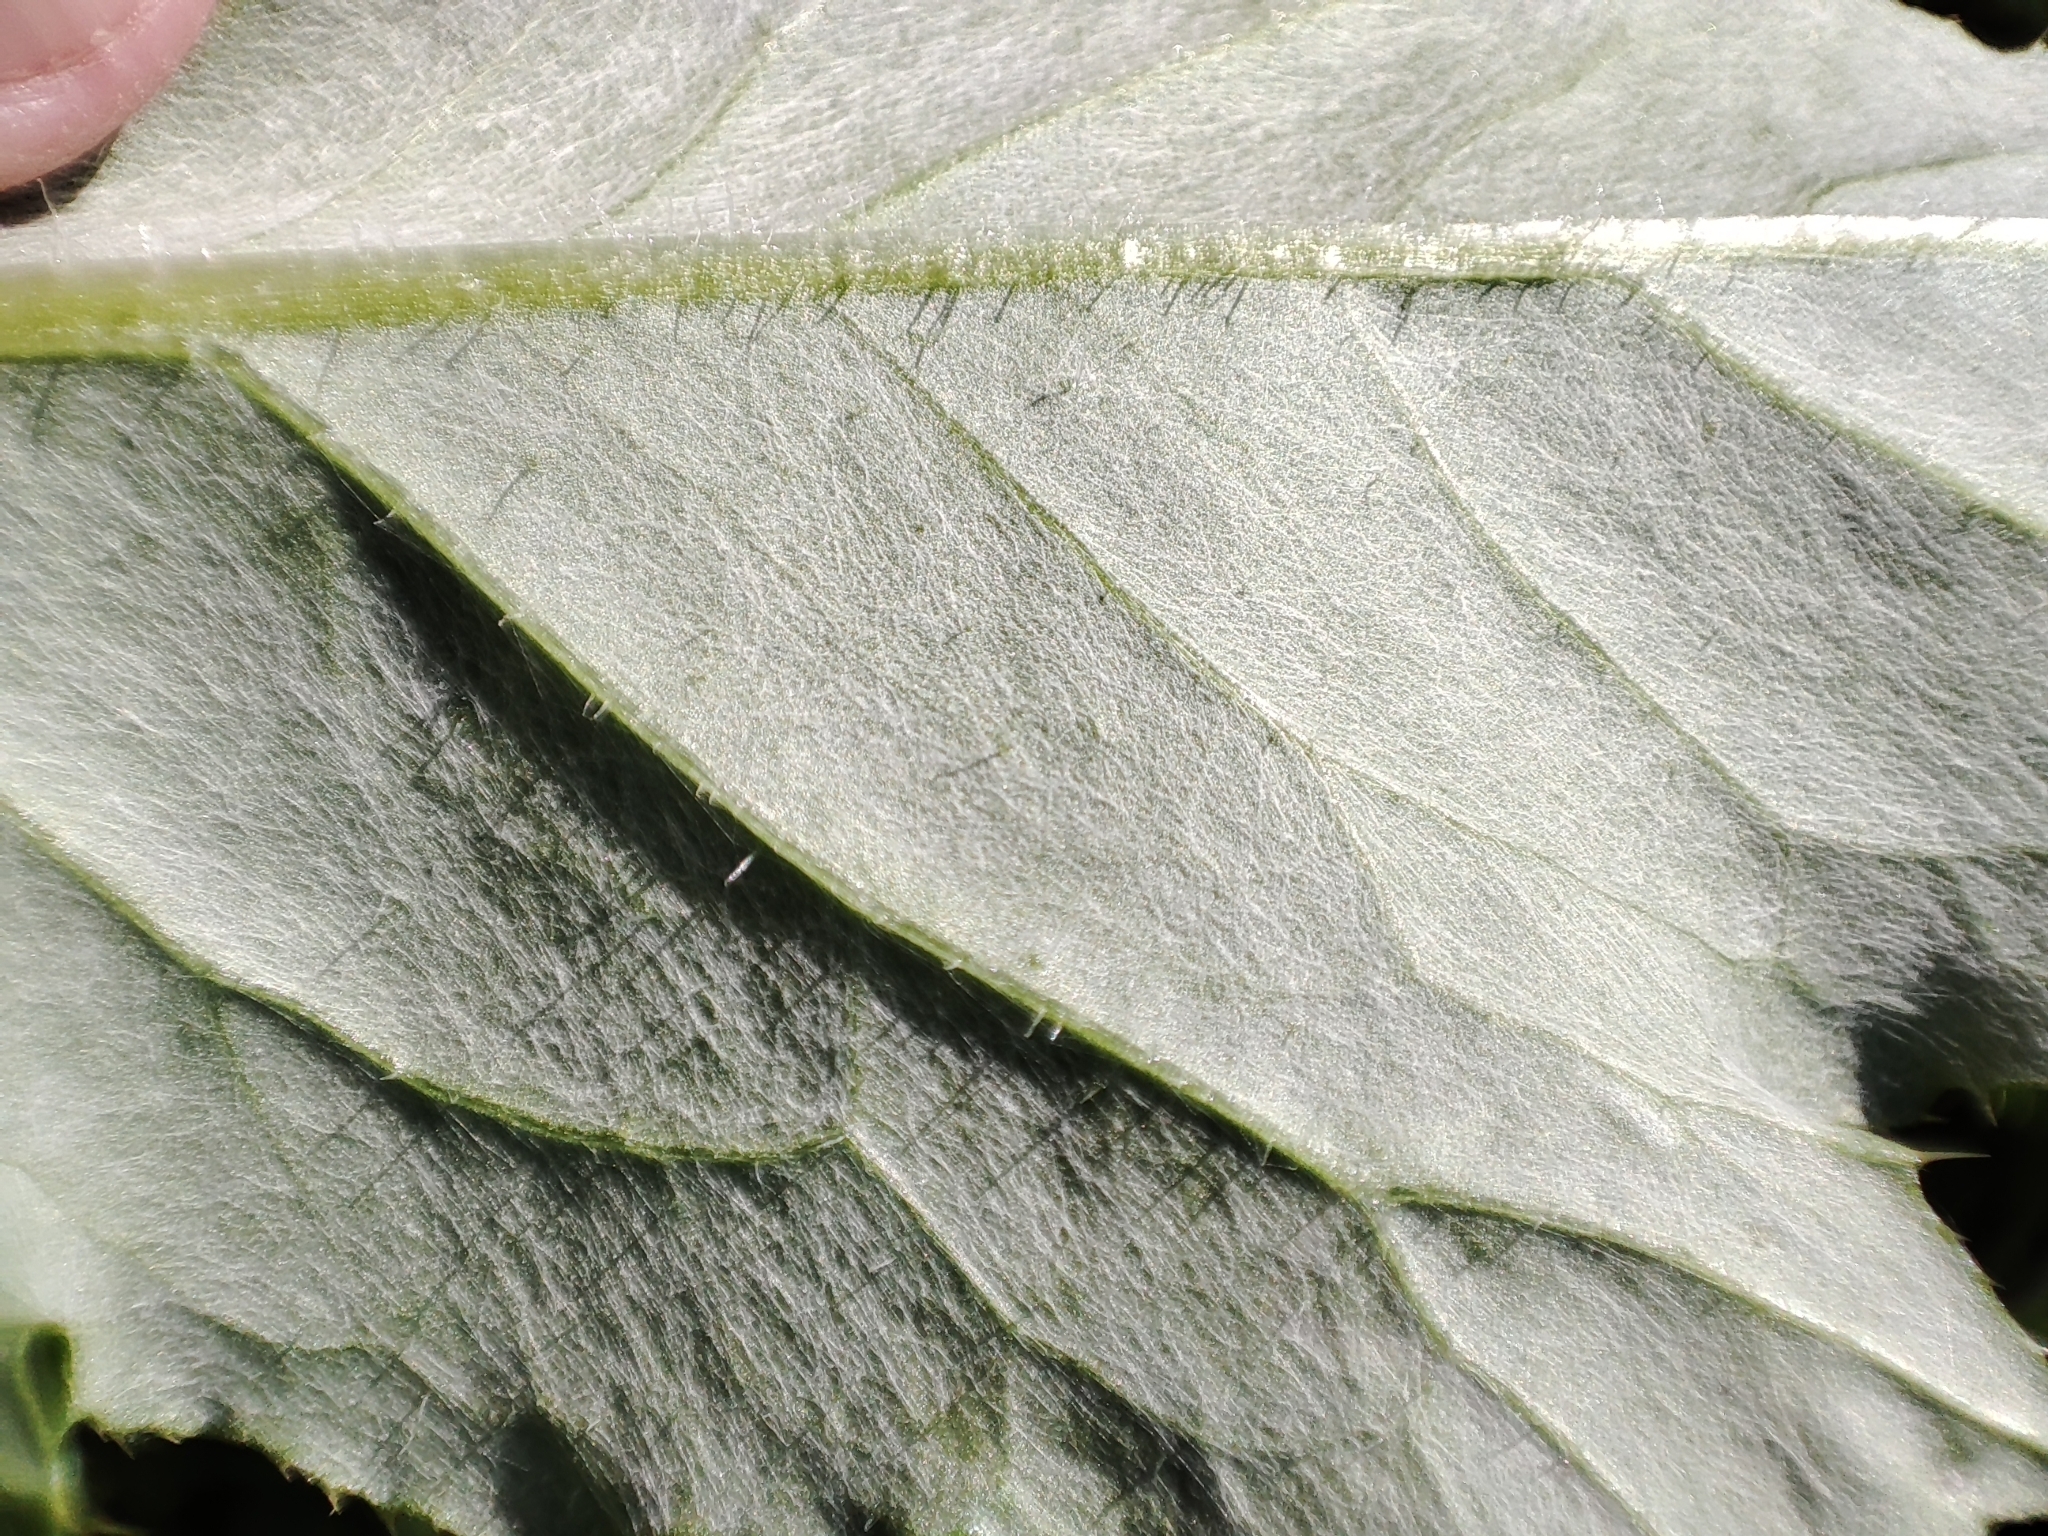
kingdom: Plantae
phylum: Tracheophyta
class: Magnoliopsida
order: Asterales
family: Asteraceae
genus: Cirsium
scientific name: Cirsium arvense
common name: Creeping thistle
